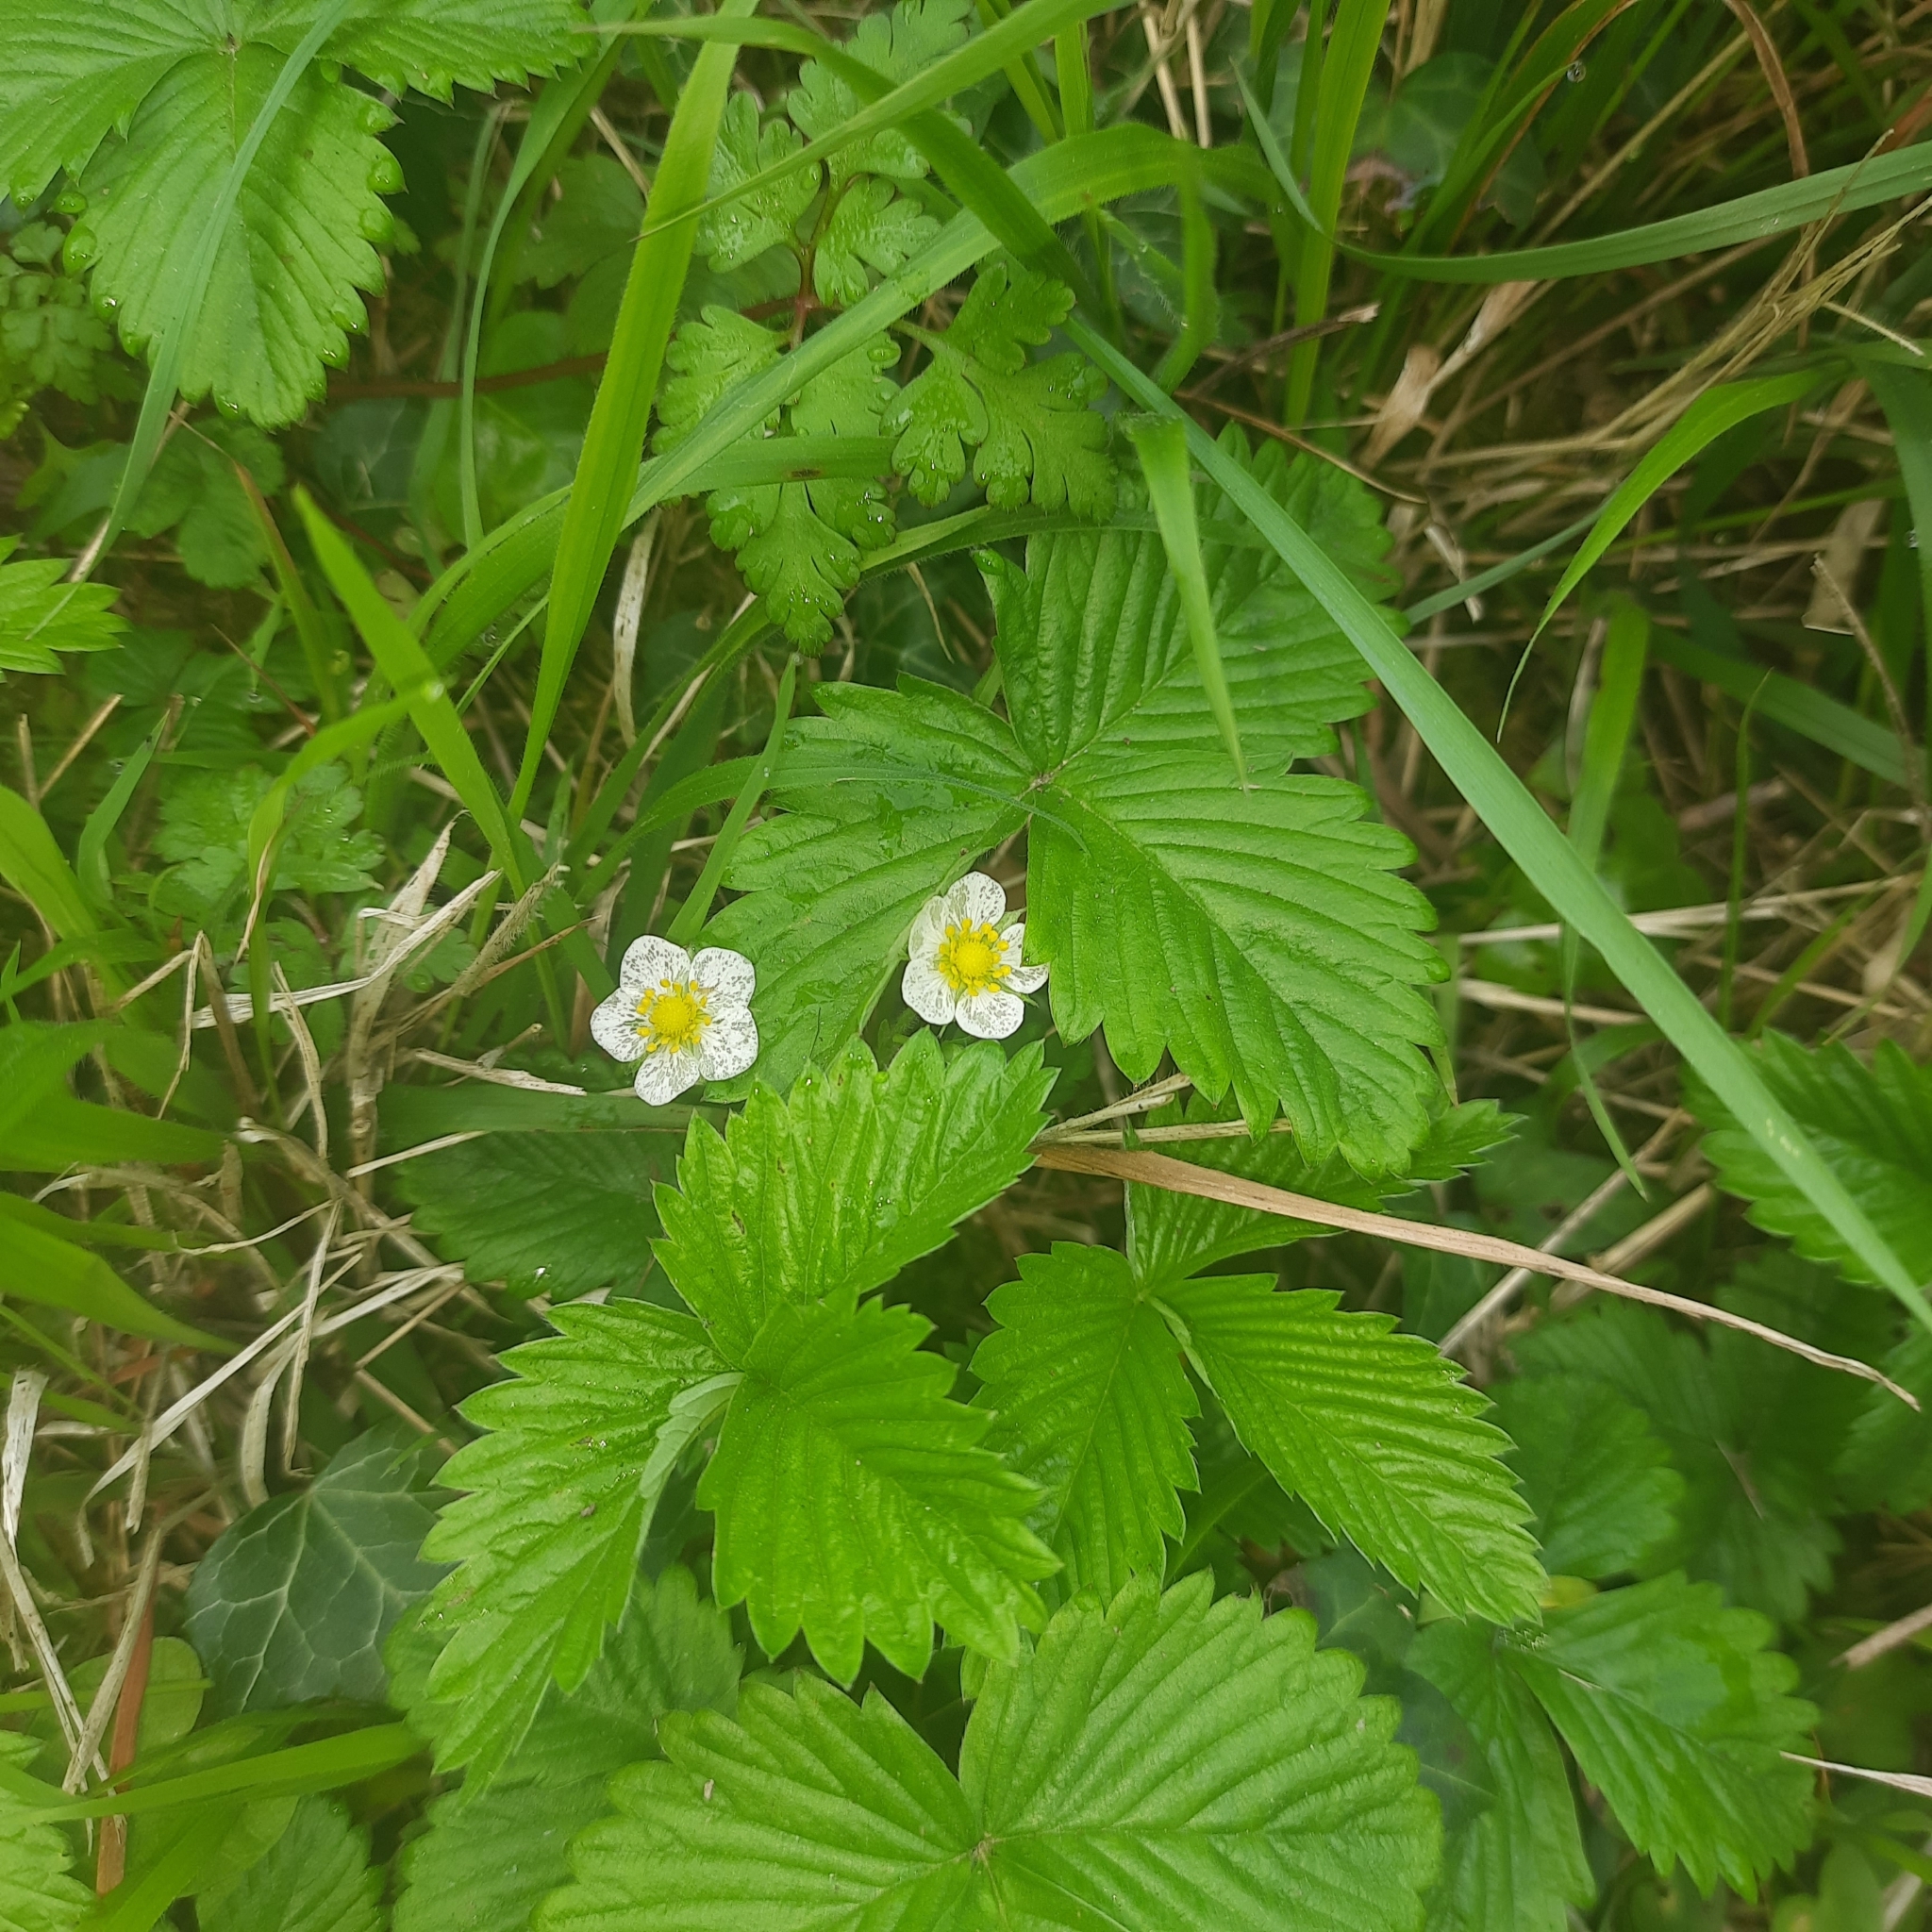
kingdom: Plantae
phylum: Tracheophyta
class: Magnoliopsida
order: Rosales
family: Rosaceae
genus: Fragaria
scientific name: Fragaria vesca
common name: Wild strawberry
